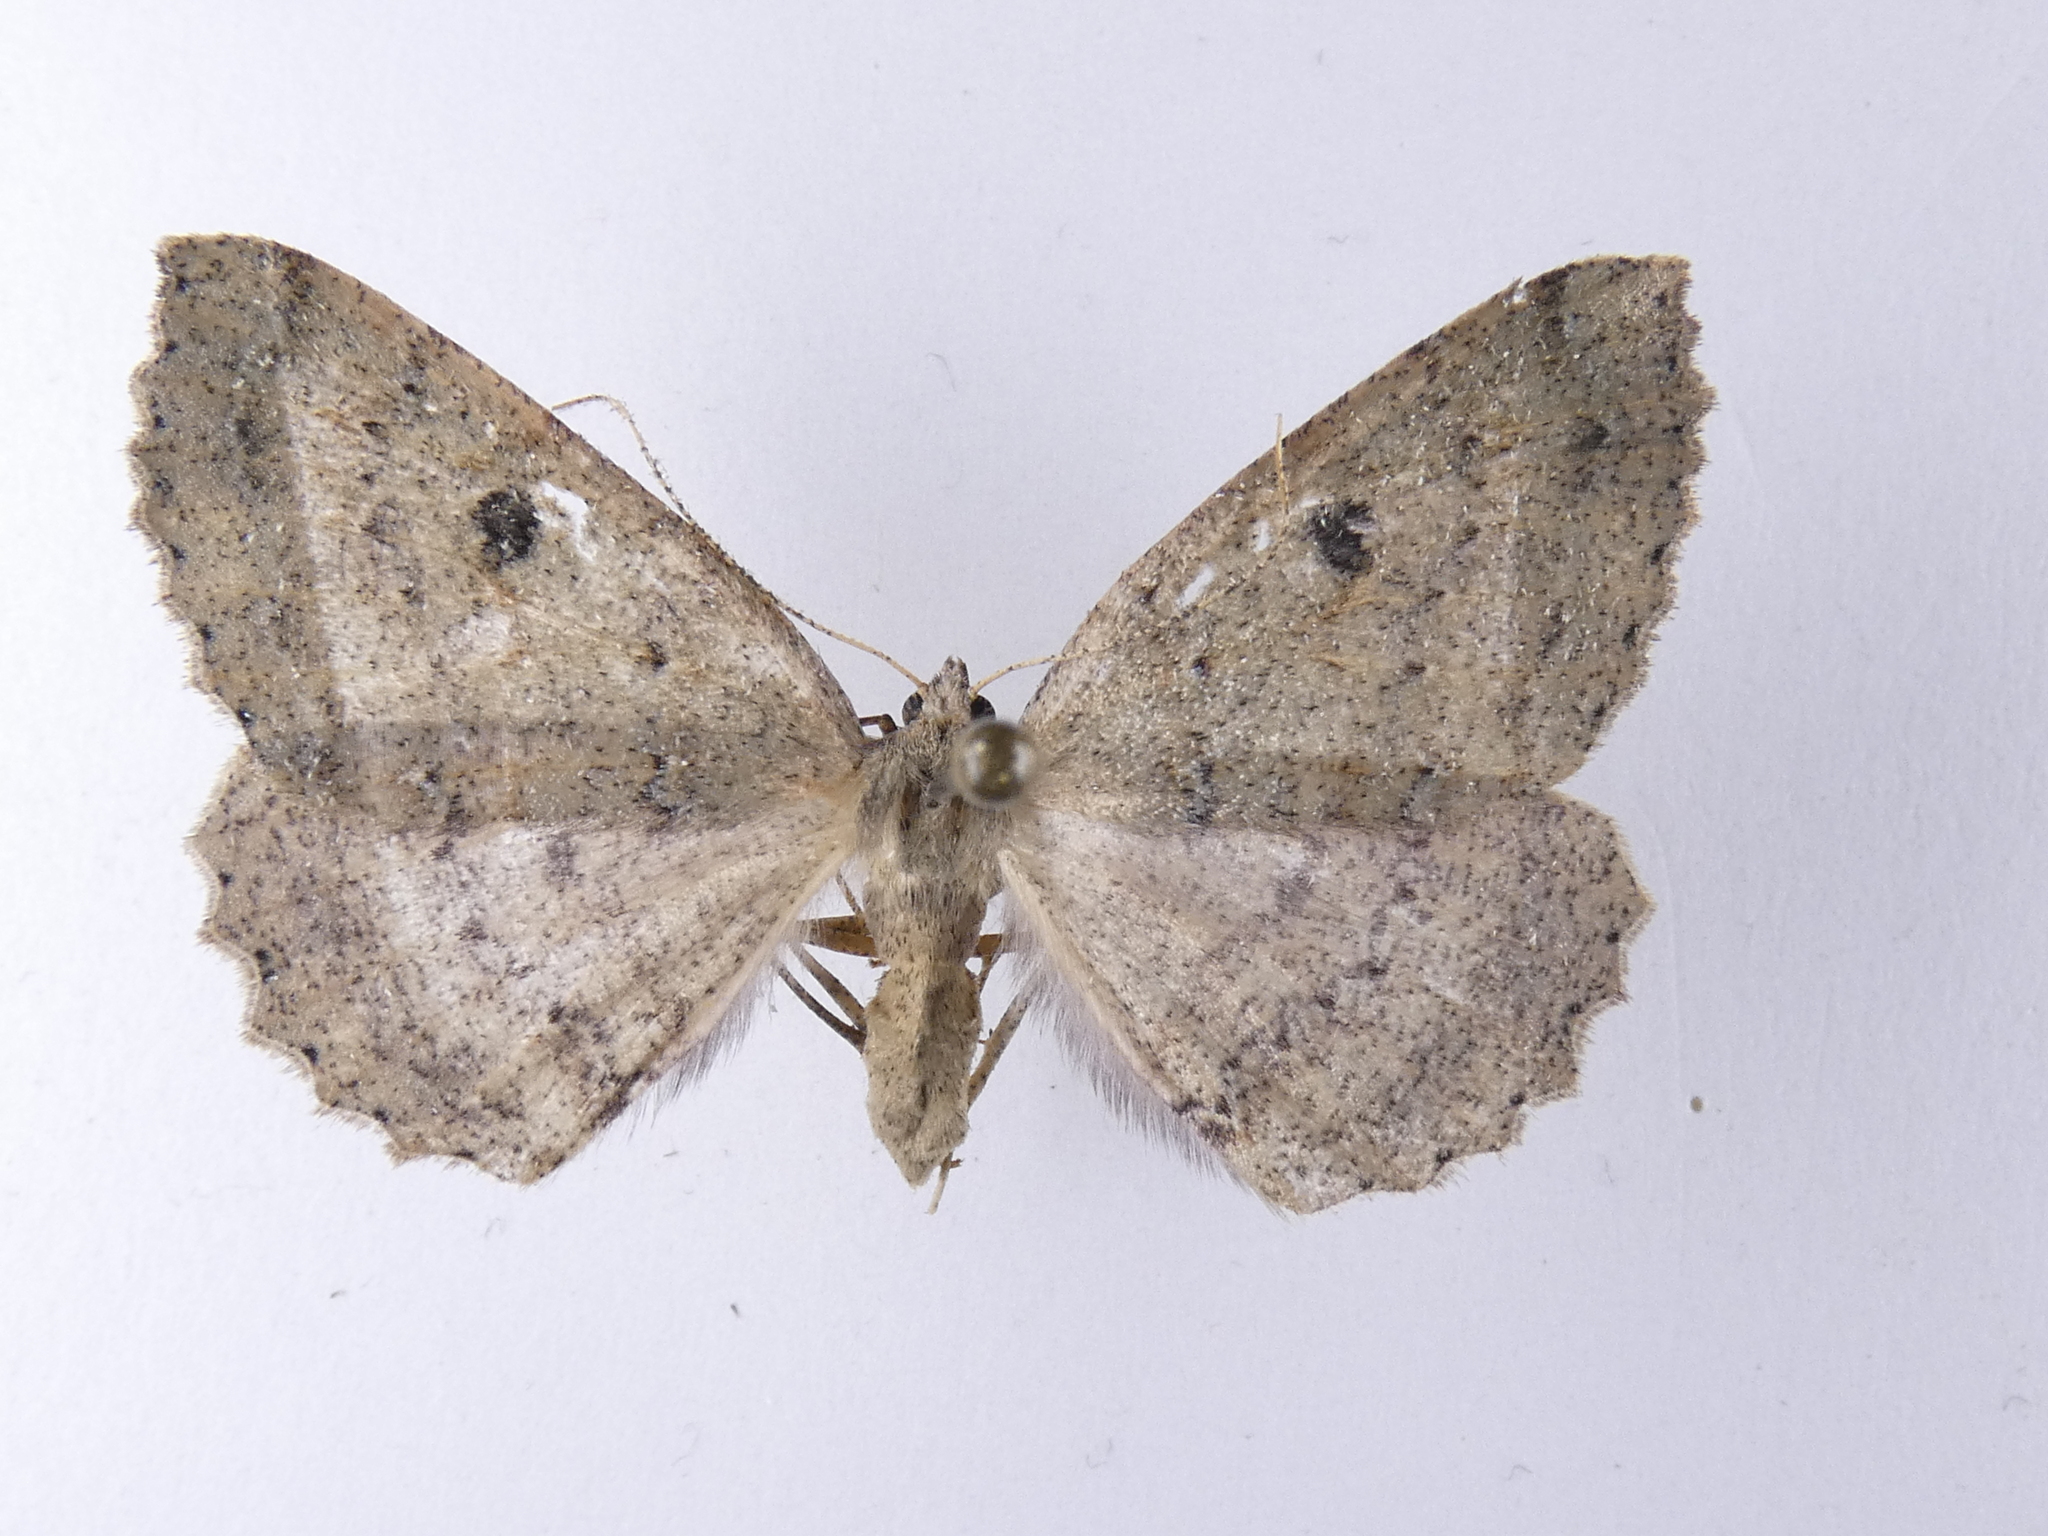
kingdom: Animalia
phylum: Arthropoda
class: Insecta
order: Lepidoptera
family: Geometridae
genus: Cleora
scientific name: Cleora scriptaria
